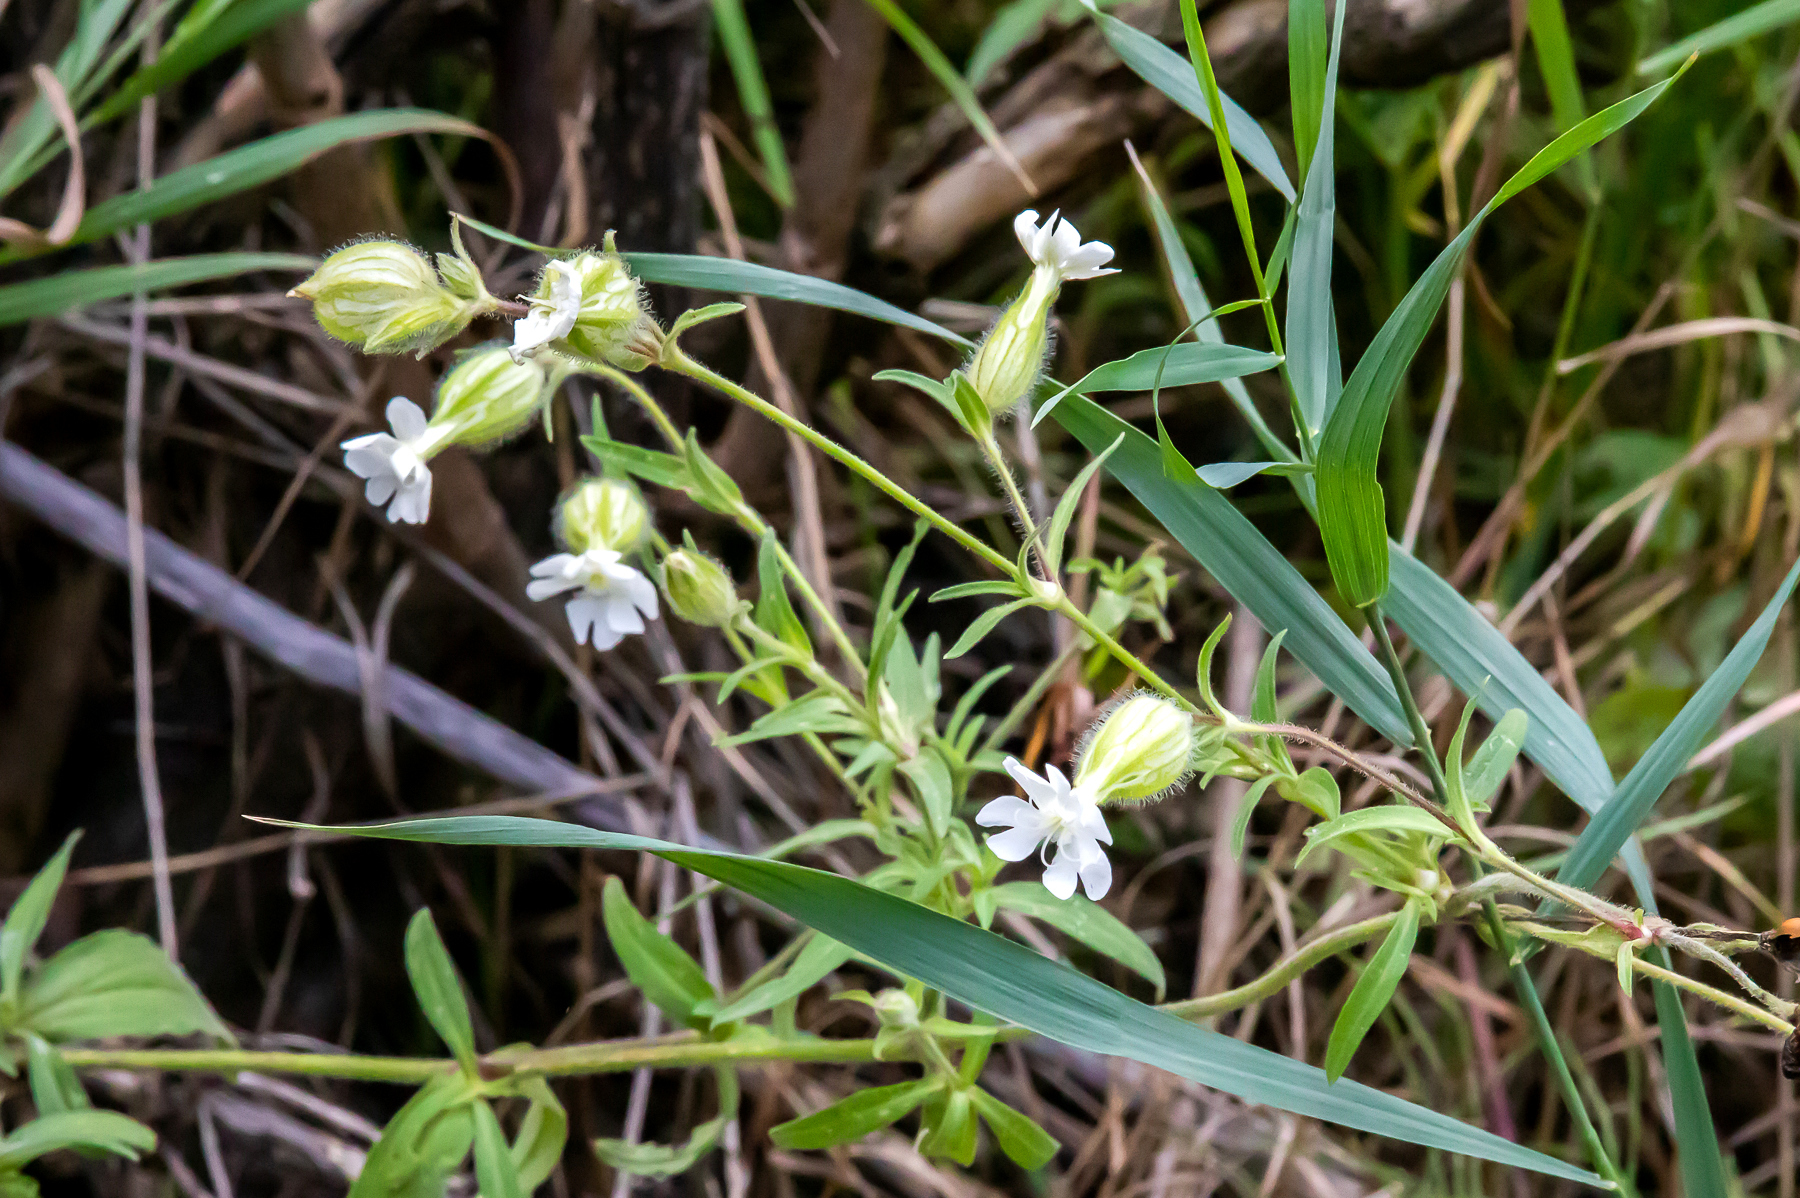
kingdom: Plantae
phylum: Tracheophyta
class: Magnoliopsida
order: Caryophyllales
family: Caryophyllaceae
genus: Silene
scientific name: Silene latifolia
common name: White campion
